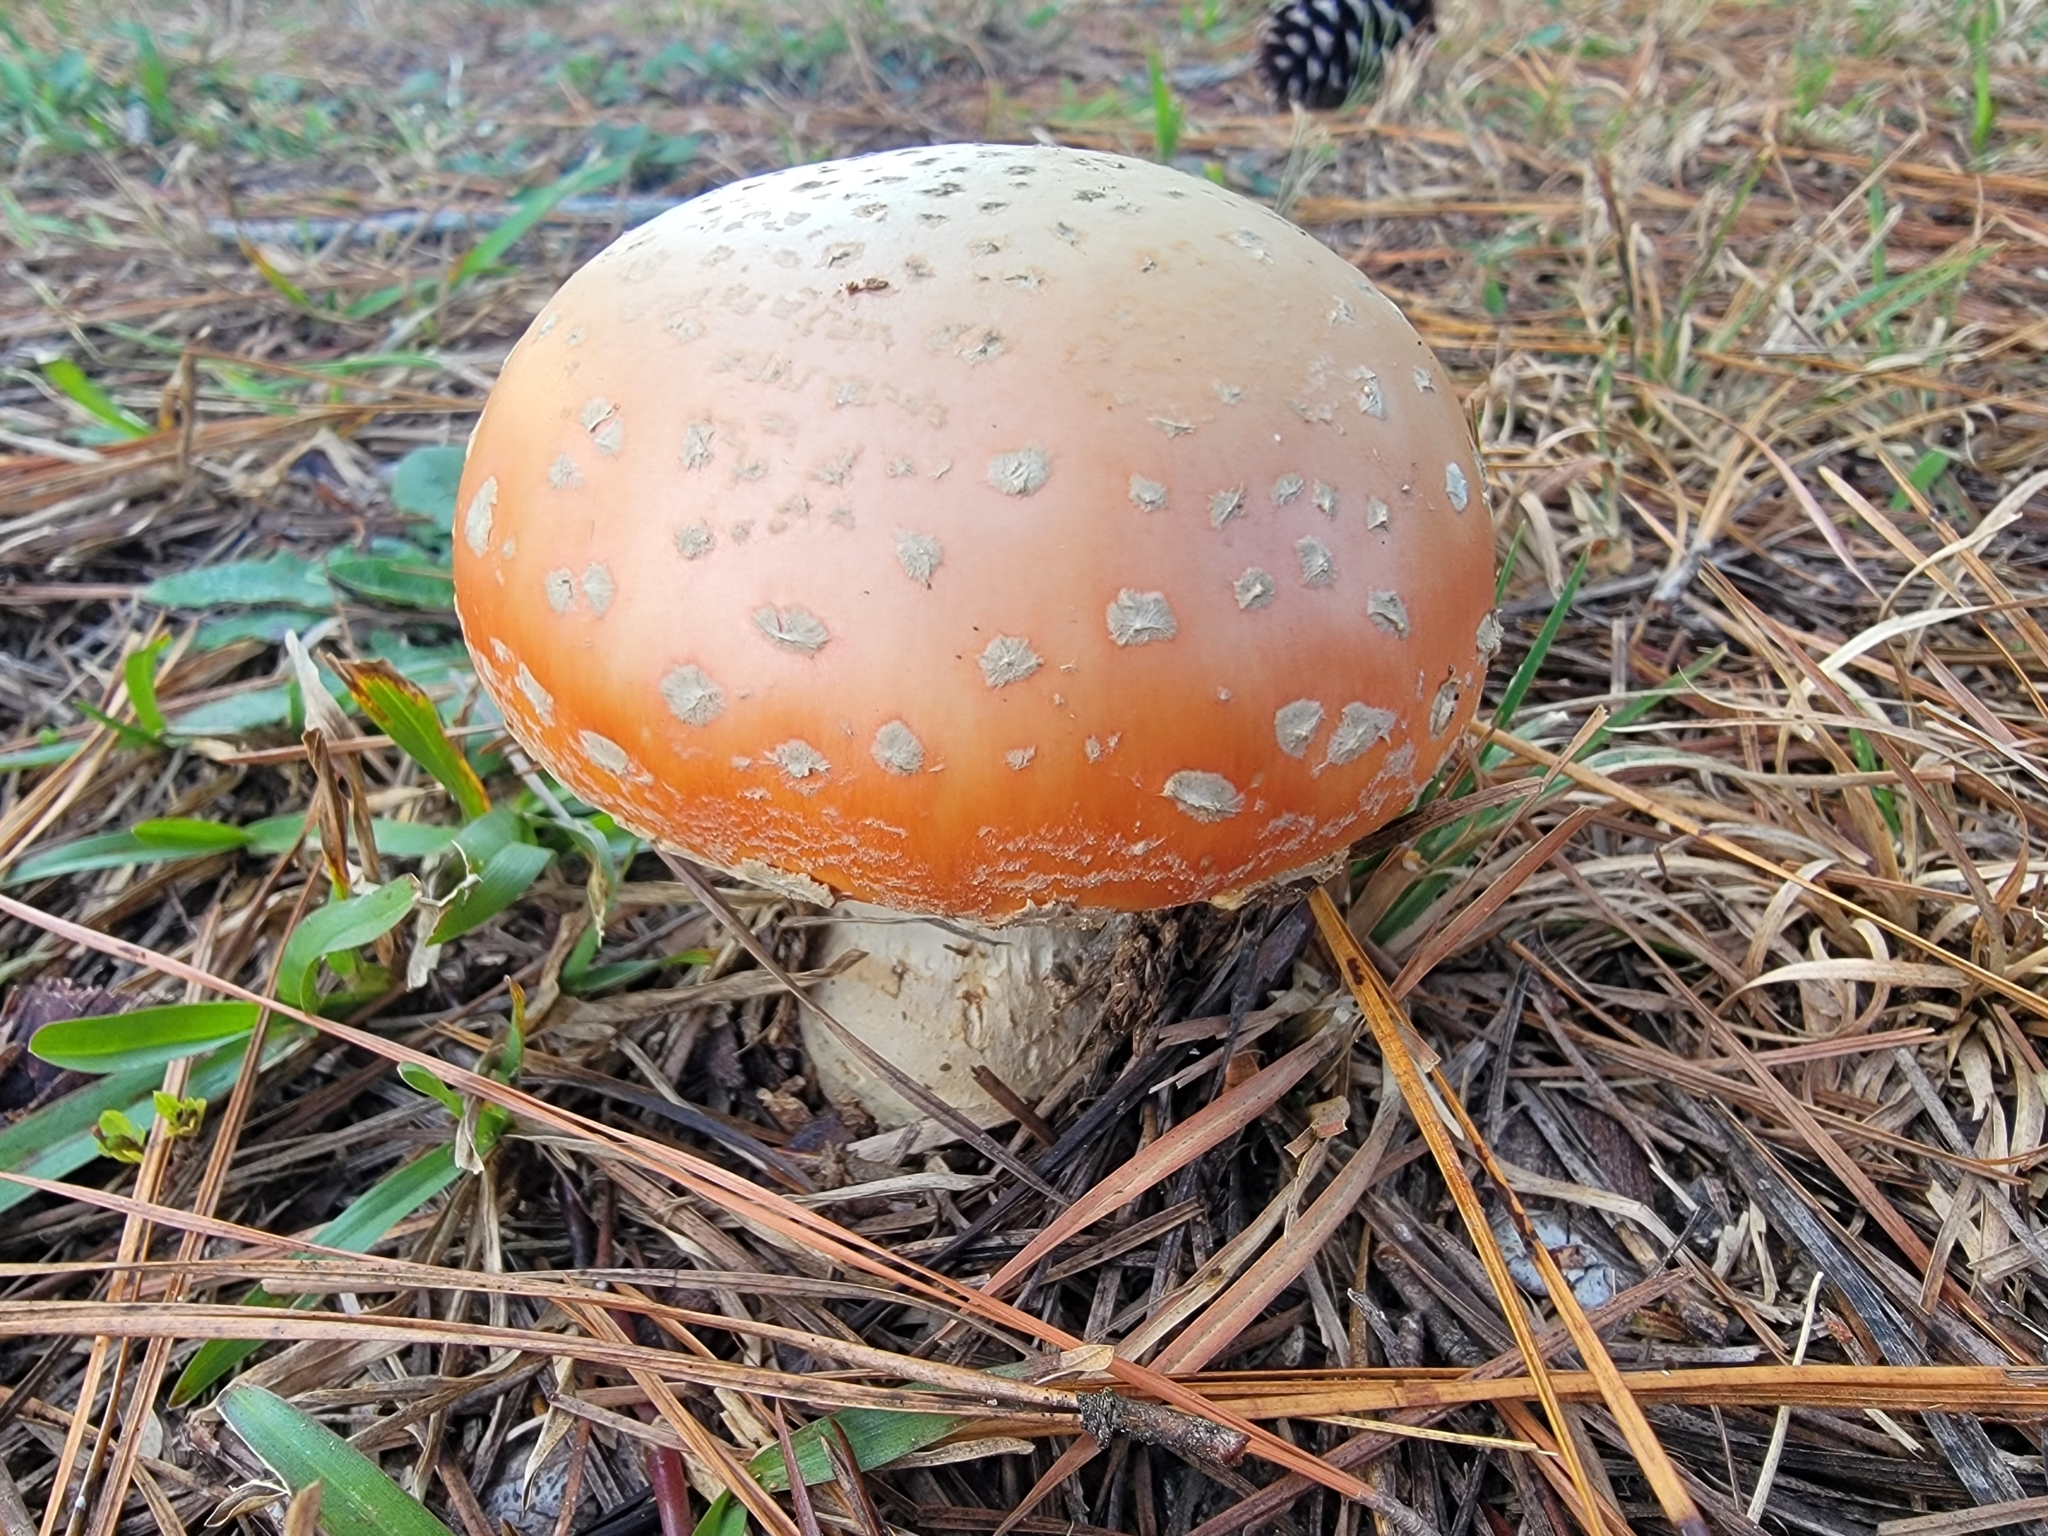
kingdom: Fungi
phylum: Basidiomycota
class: Agaricomycetes
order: Agaricales
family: Amanitaceae
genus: Amanita
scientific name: Amanita persicina
